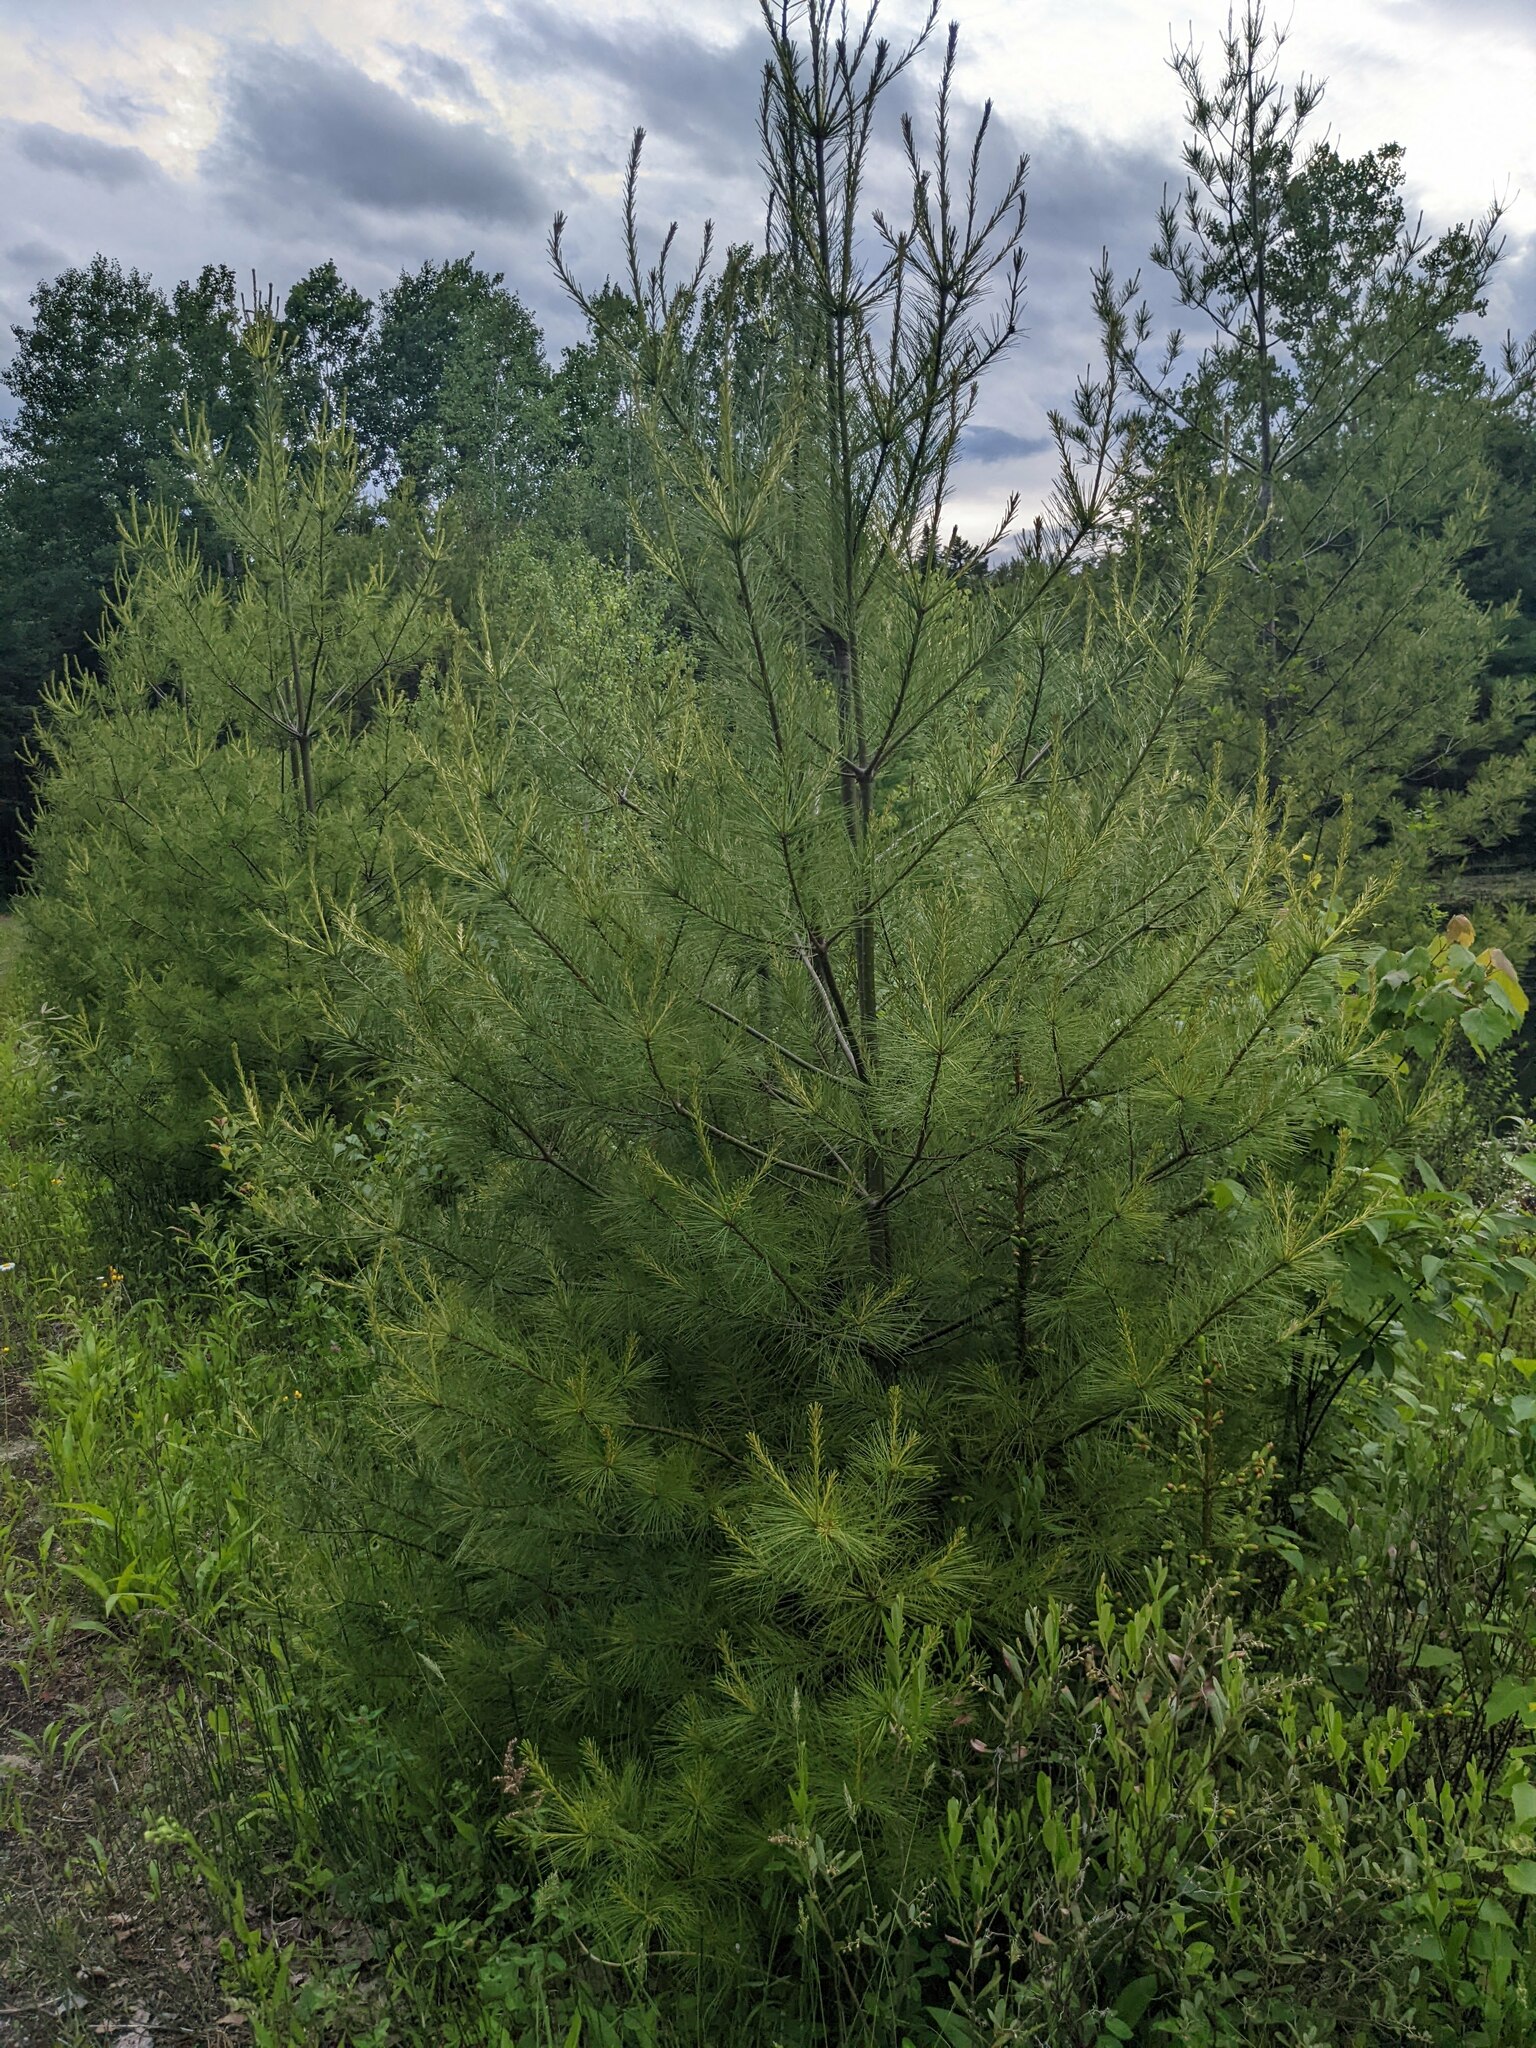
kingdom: Plantae
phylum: Tracheophyta
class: Pinopsida
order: Pinales
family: Pinaceae
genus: Pinus
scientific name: Pinus strobus
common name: Weymouth pine
